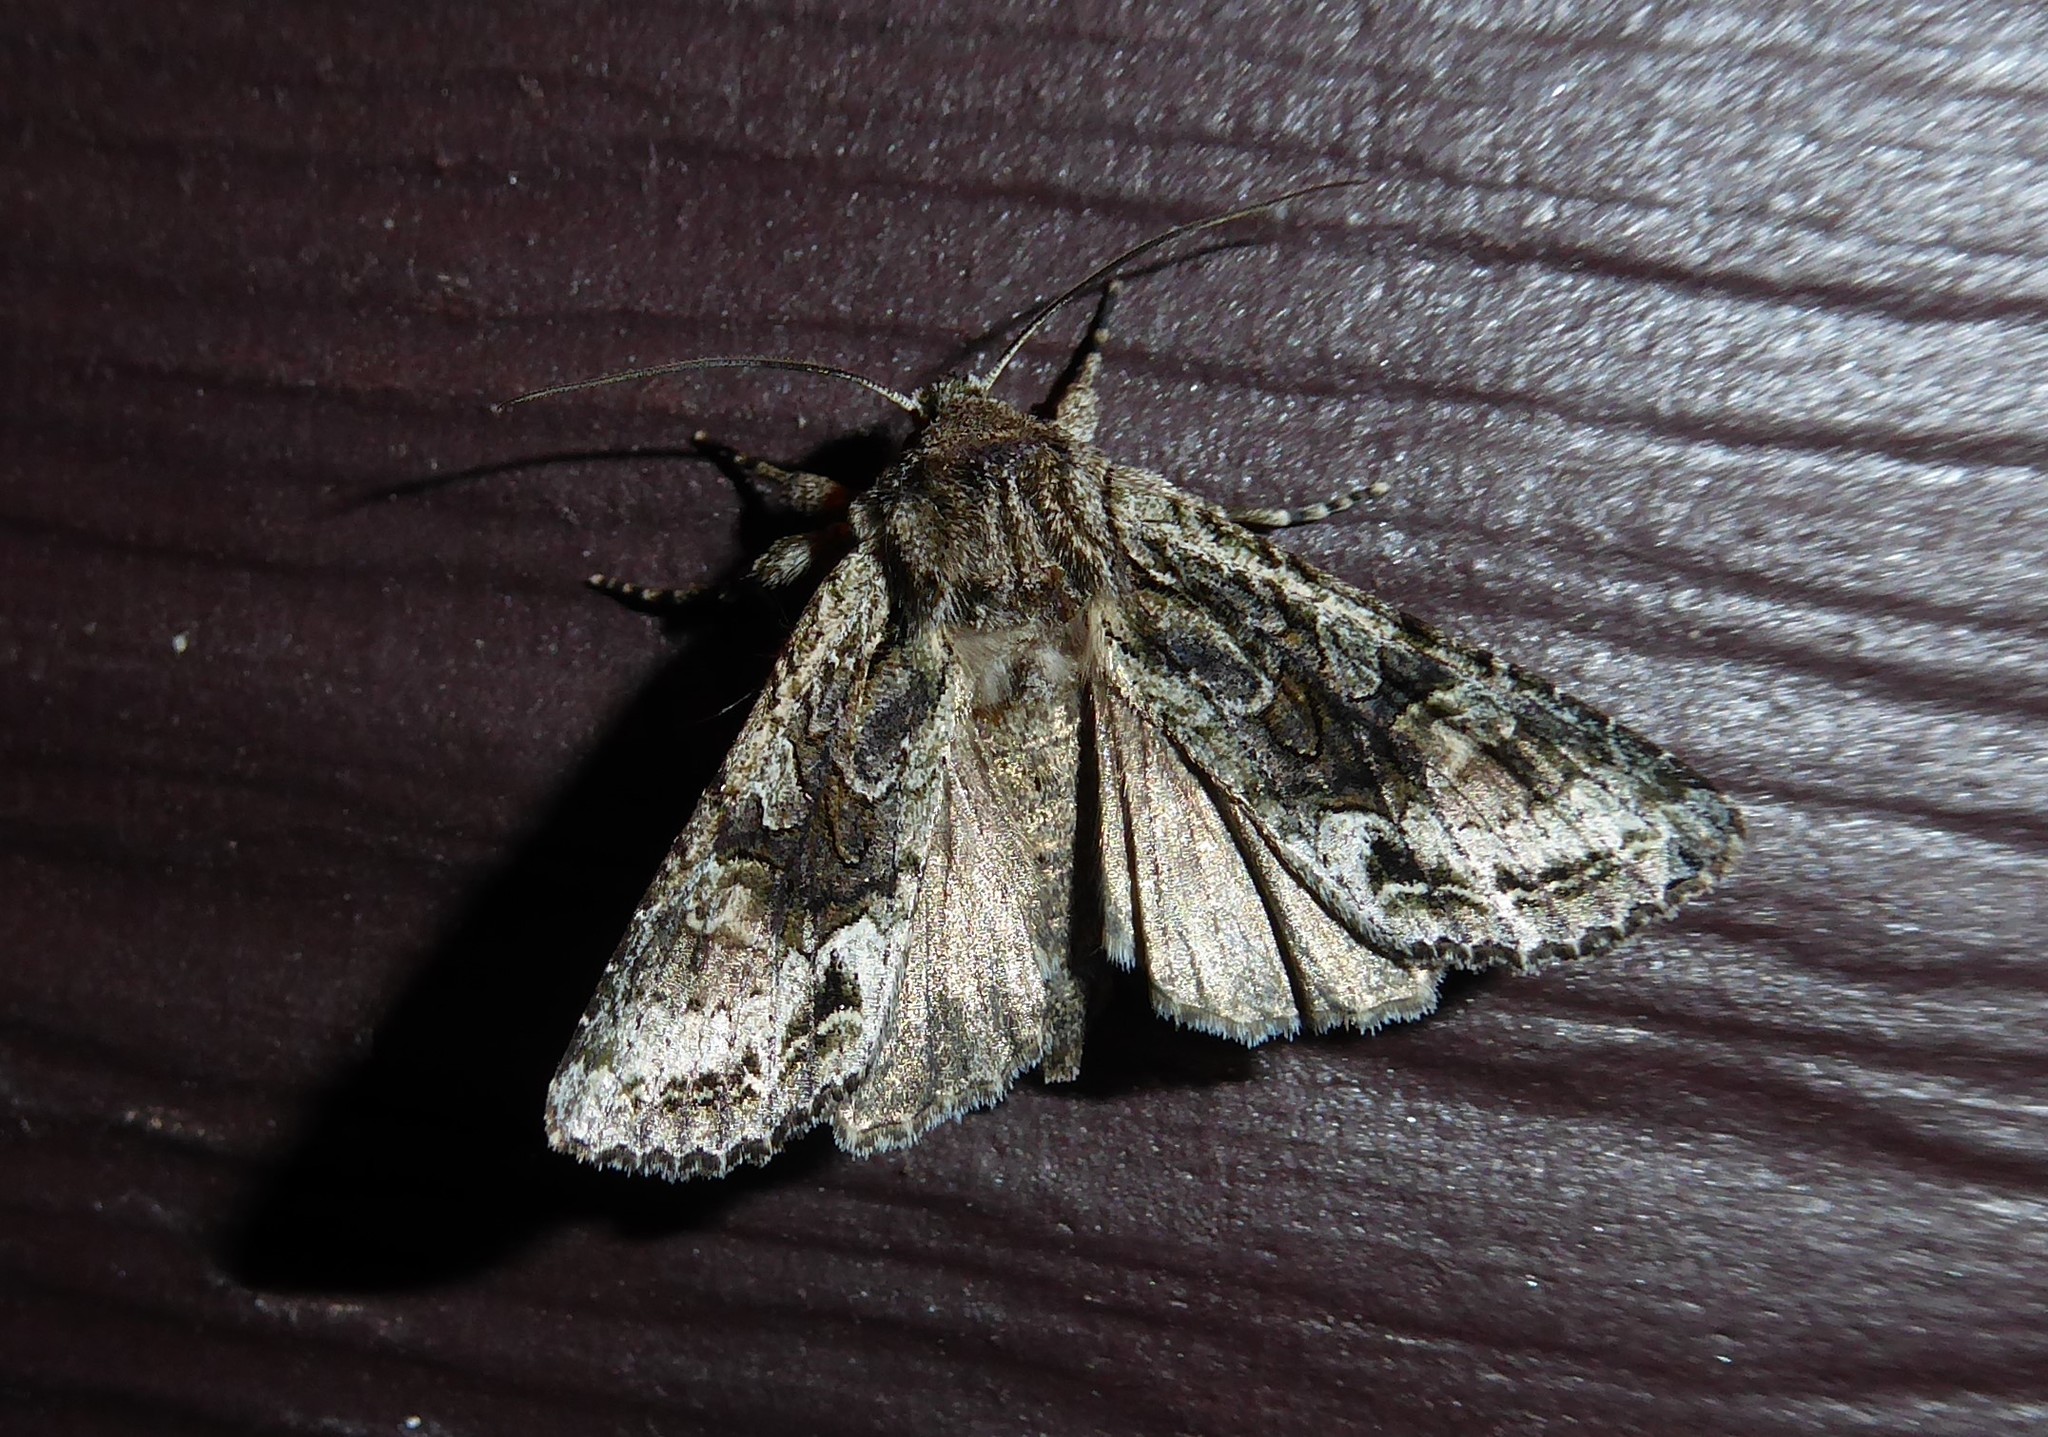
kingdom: Animalia
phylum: Arthropoda
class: Insecta
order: Lepidoptera
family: Noctuidae
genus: Ichneutica
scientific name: Ichneutica mutans
